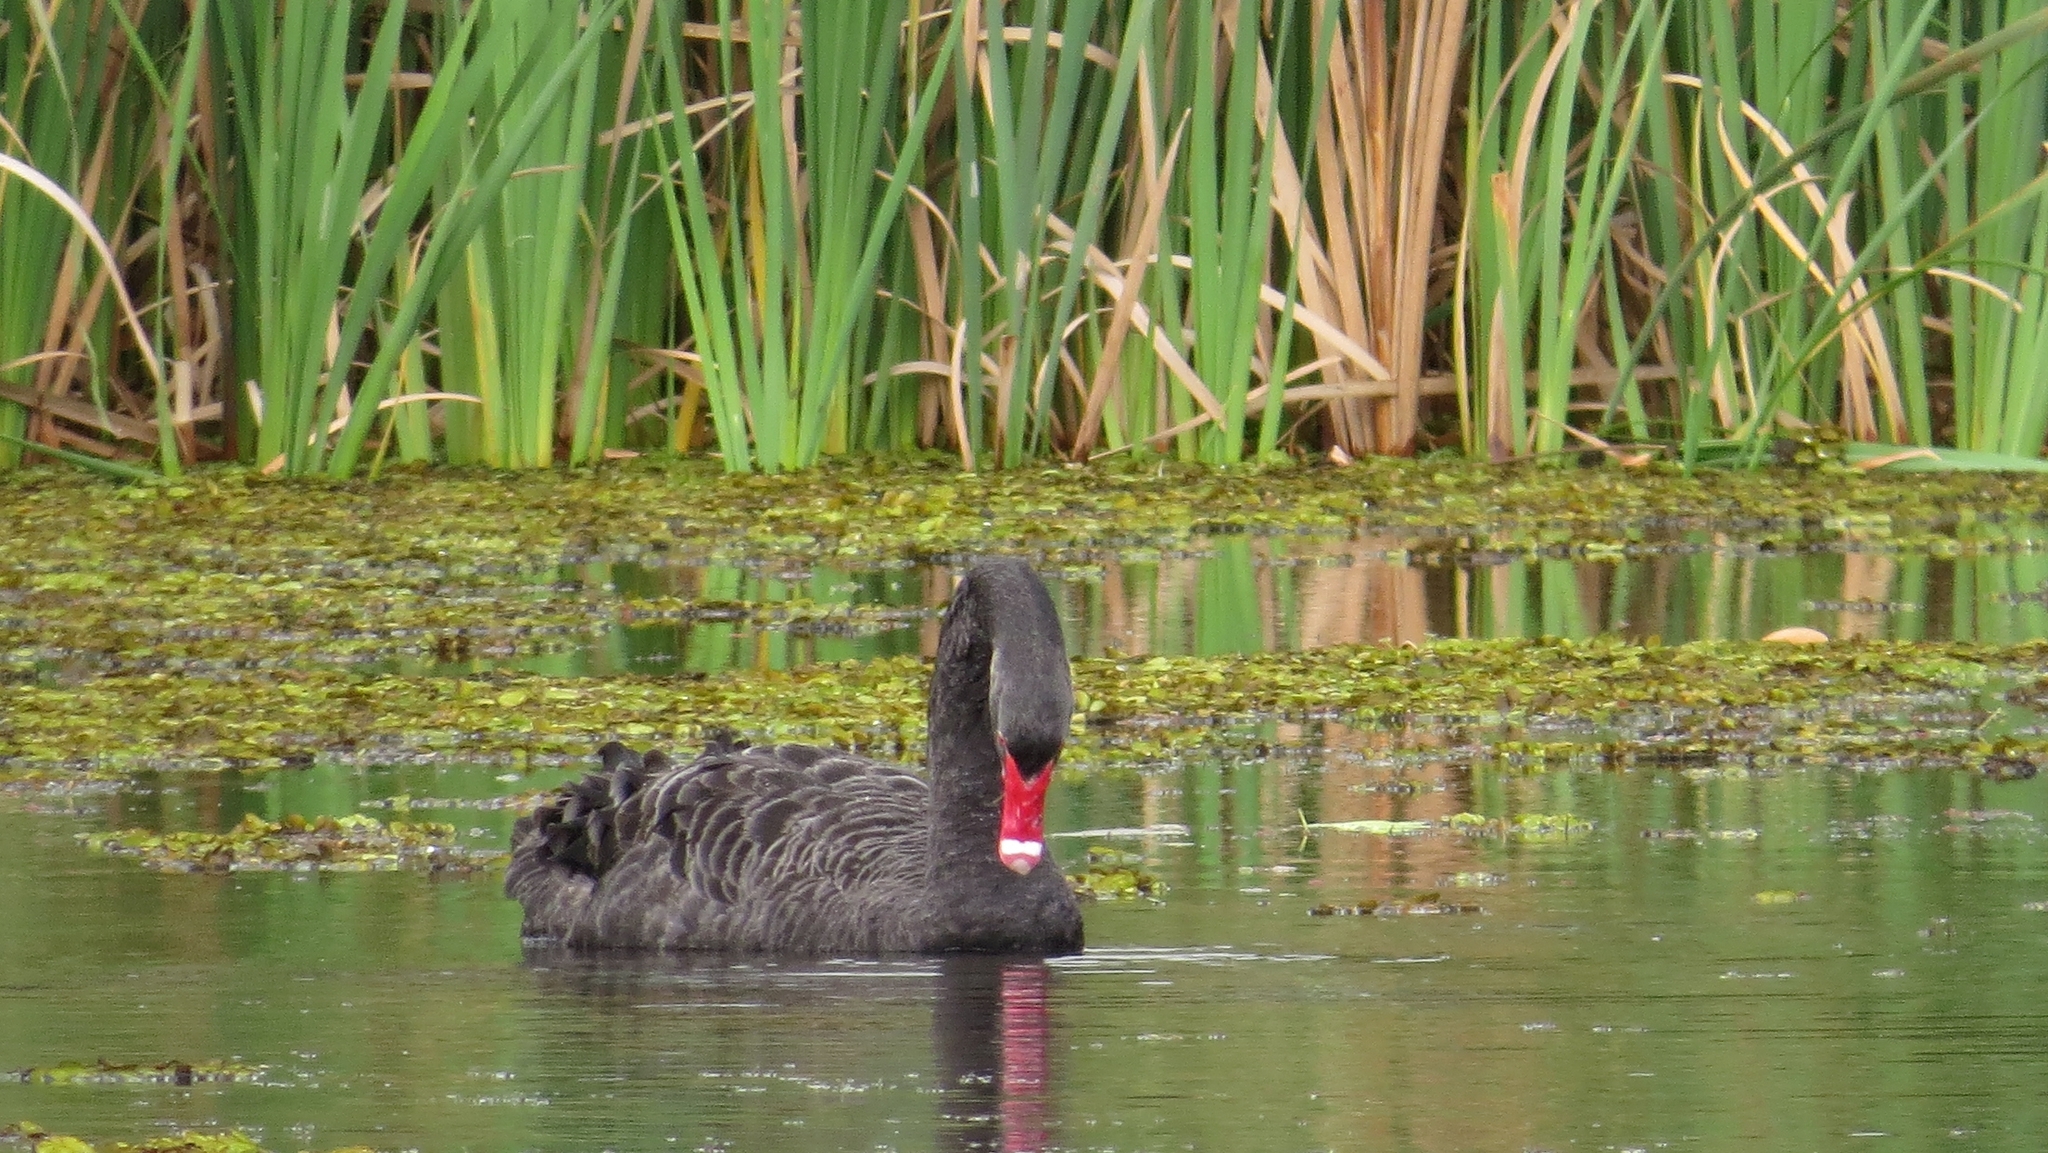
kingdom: Animalia
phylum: Chordata
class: Aves
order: Anseriformes
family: Anatidae
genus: Cygnus
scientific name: Cygnus atratus
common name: Black swan
